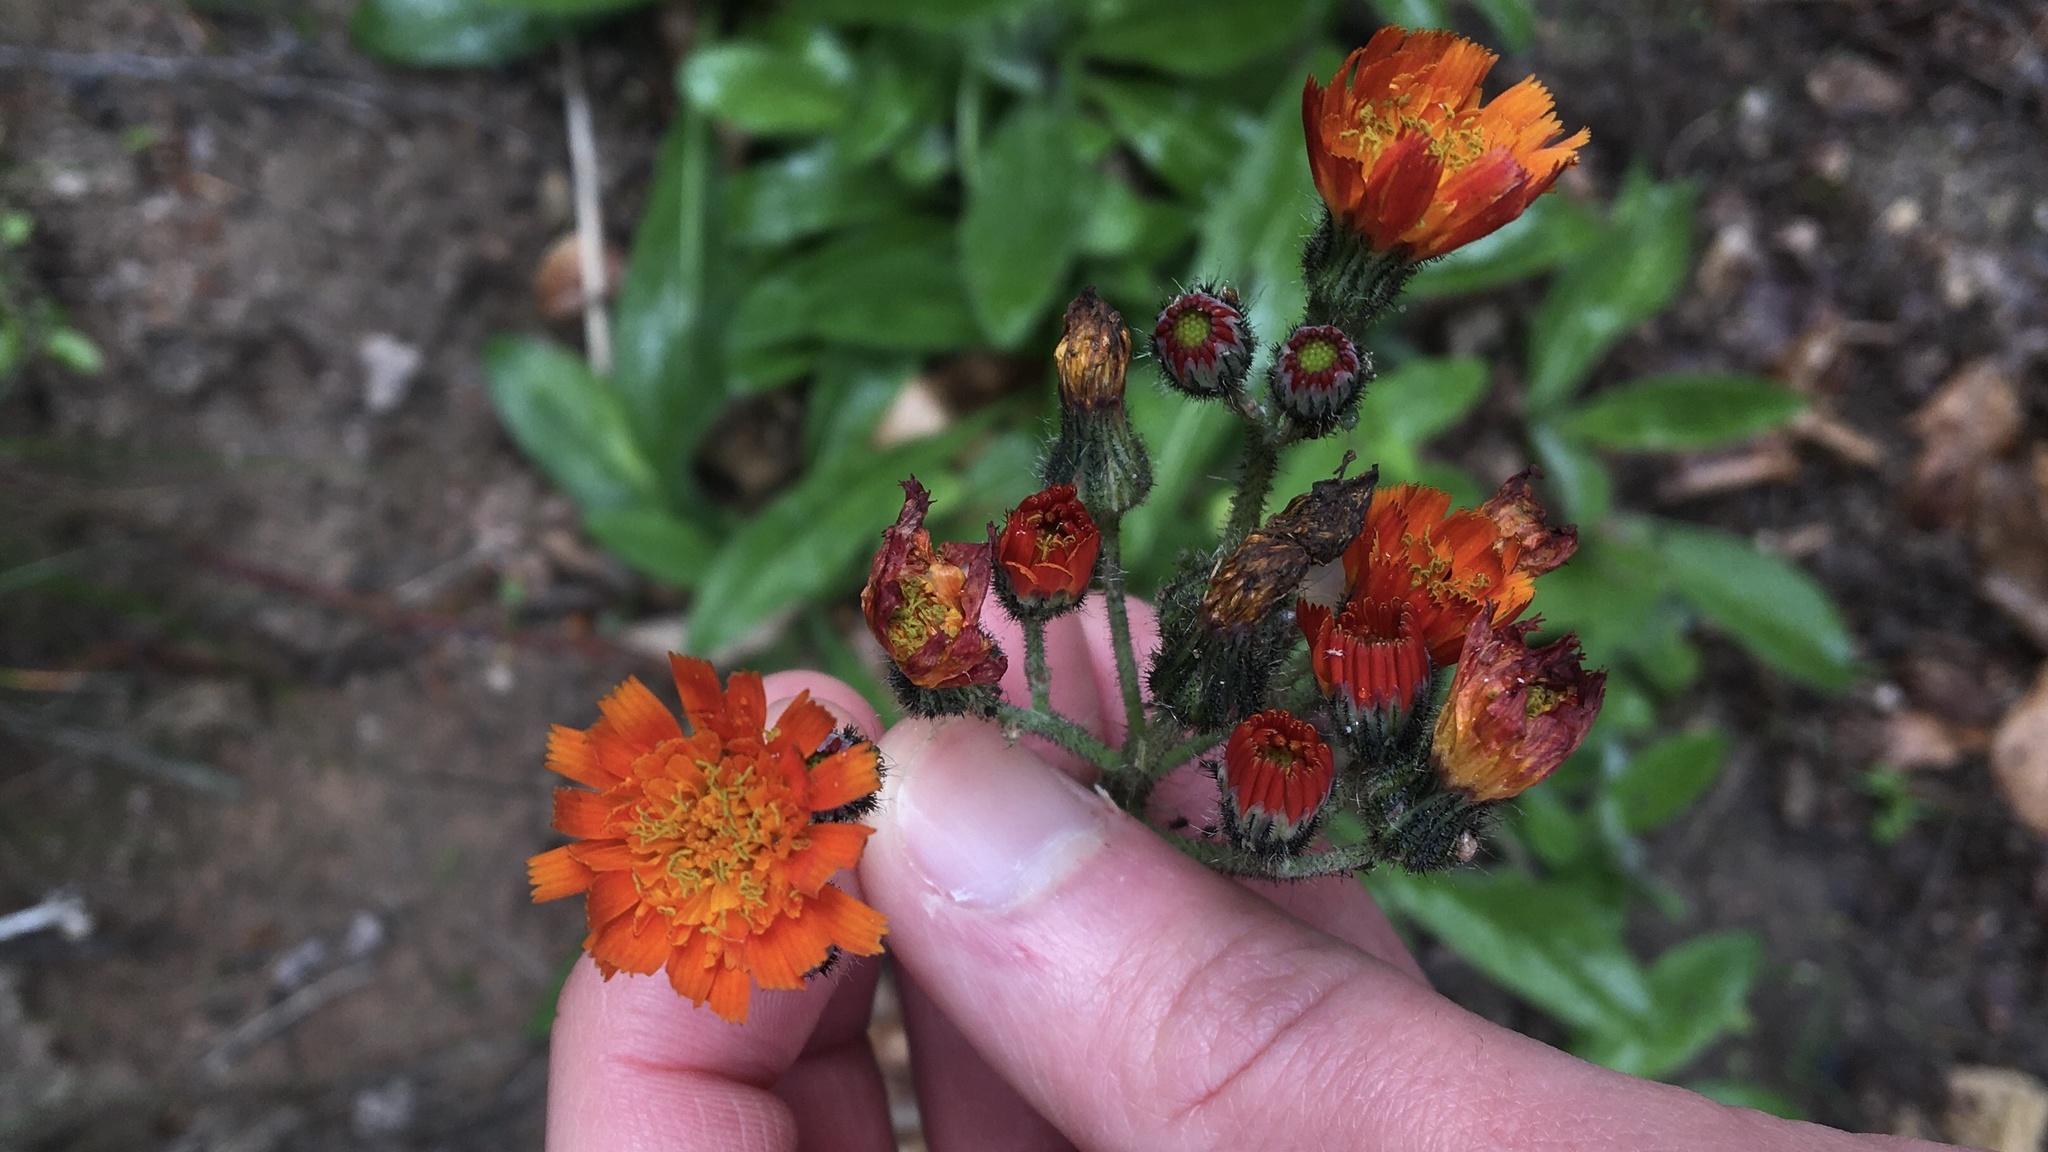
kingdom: Plantae
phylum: Tracheophyta
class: Magnoliopsida
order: Asterales
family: Asteraceae
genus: Pilosella
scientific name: Pilosella aurantiaca
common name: Fox-and-cubs
